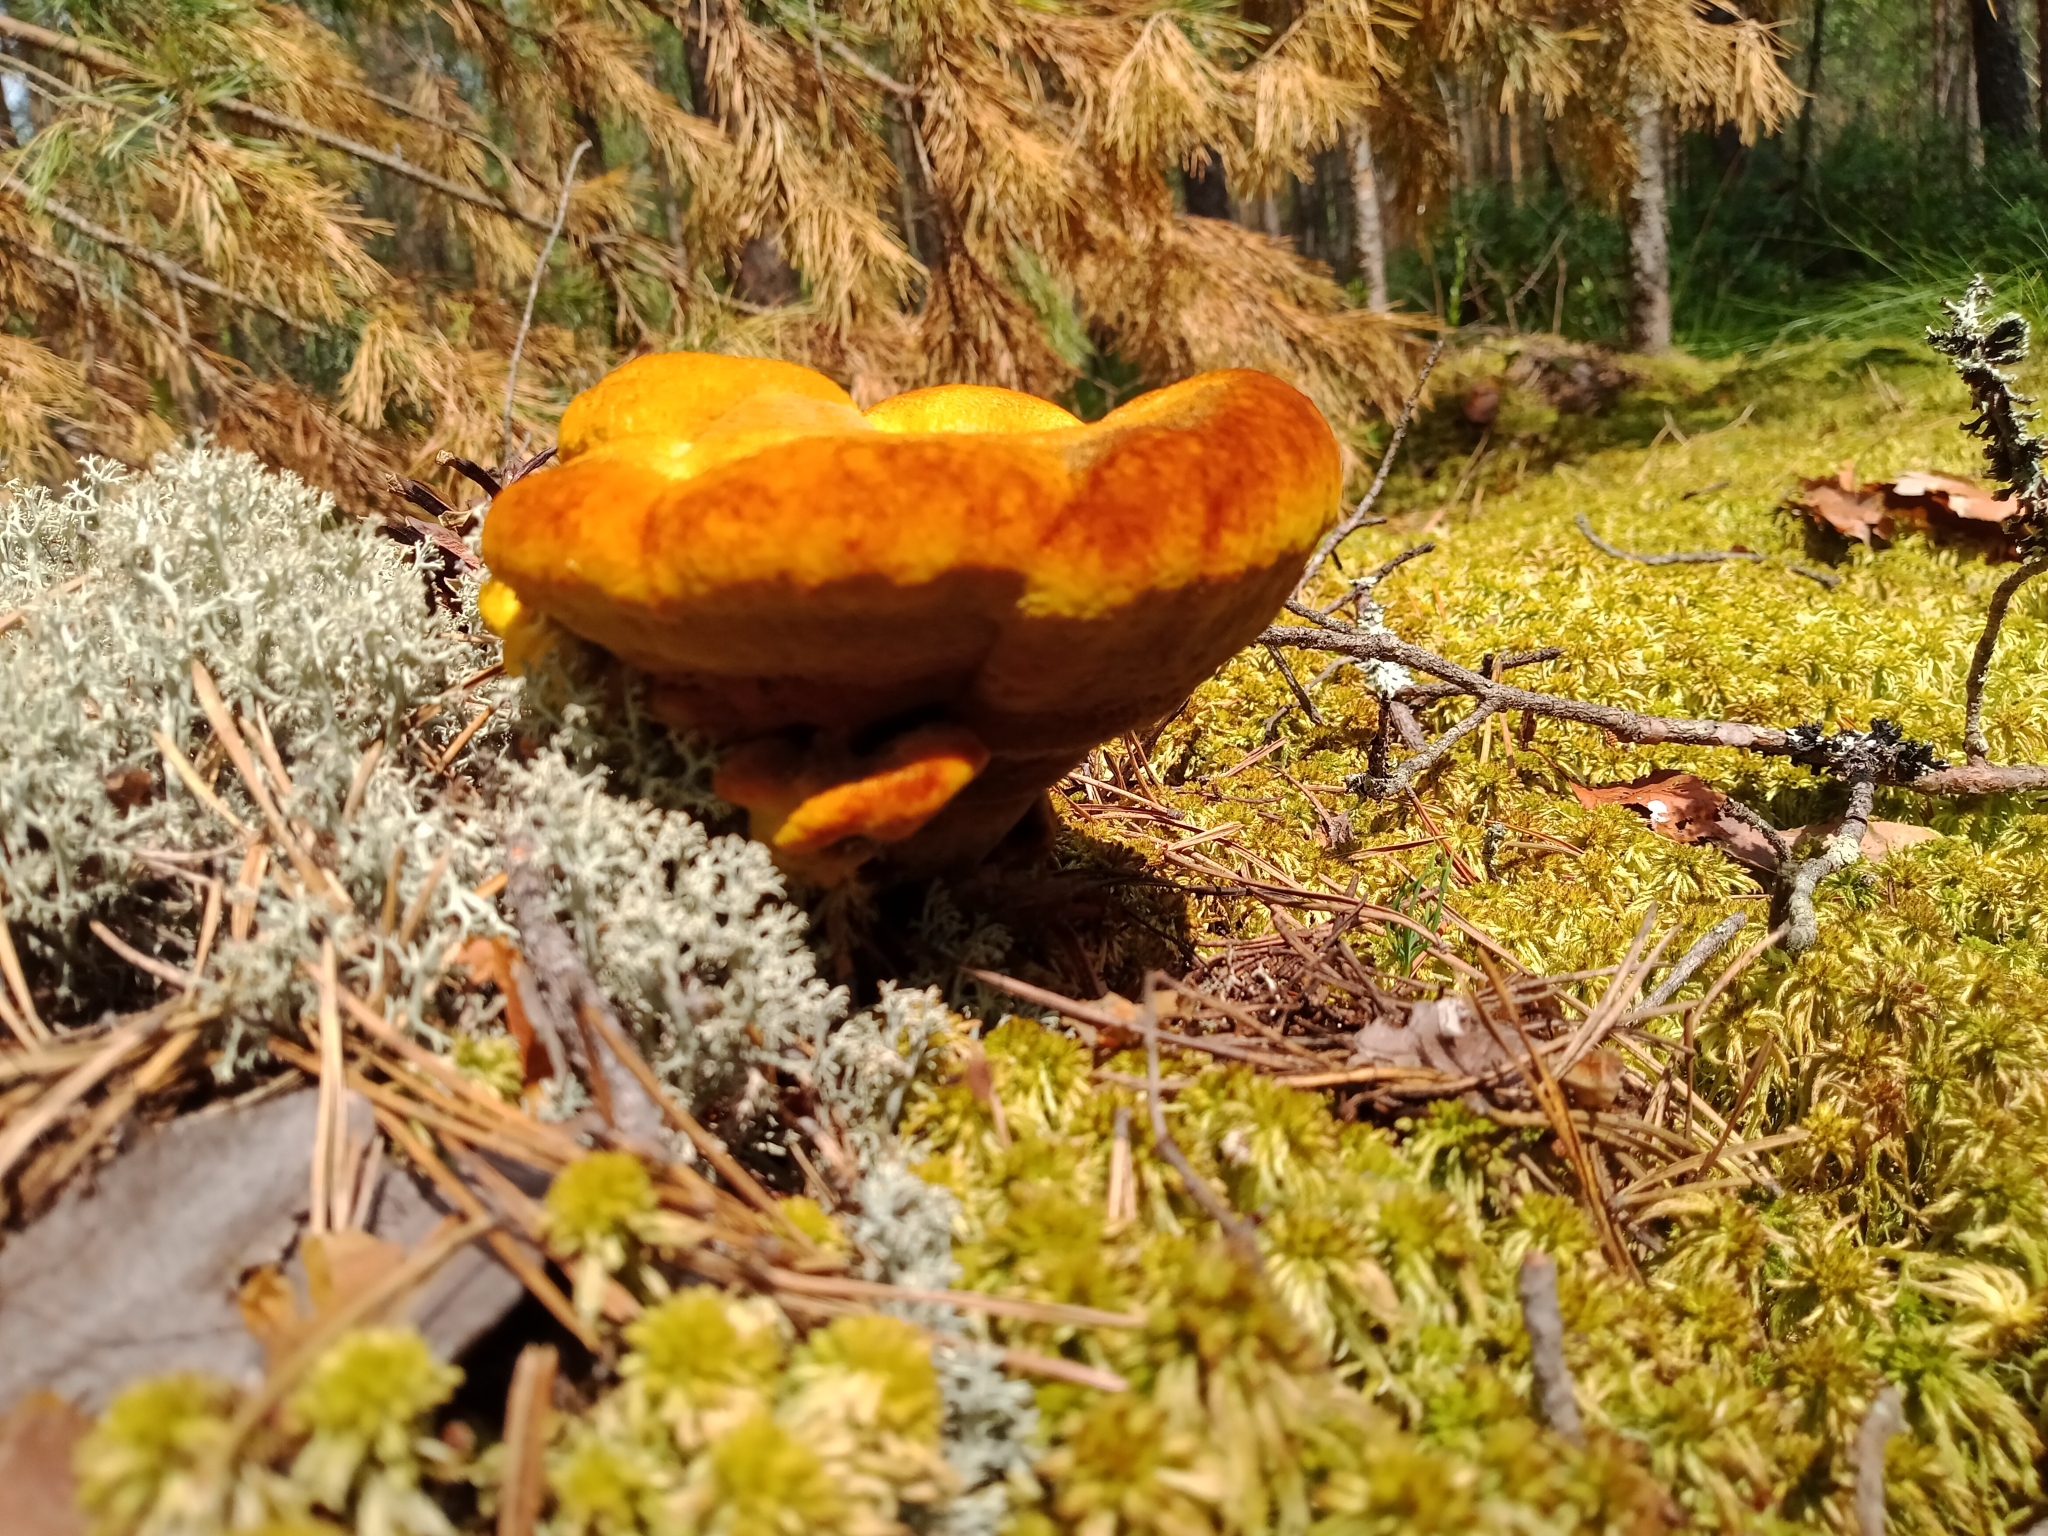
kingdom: Fungi
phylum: Basidiomycota
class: Agaricomycetes
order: Polyporales
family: Laetiporaceae
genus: Phaeolus
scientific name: Phaeolus schweinitzii
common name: Dyer's mazegill
